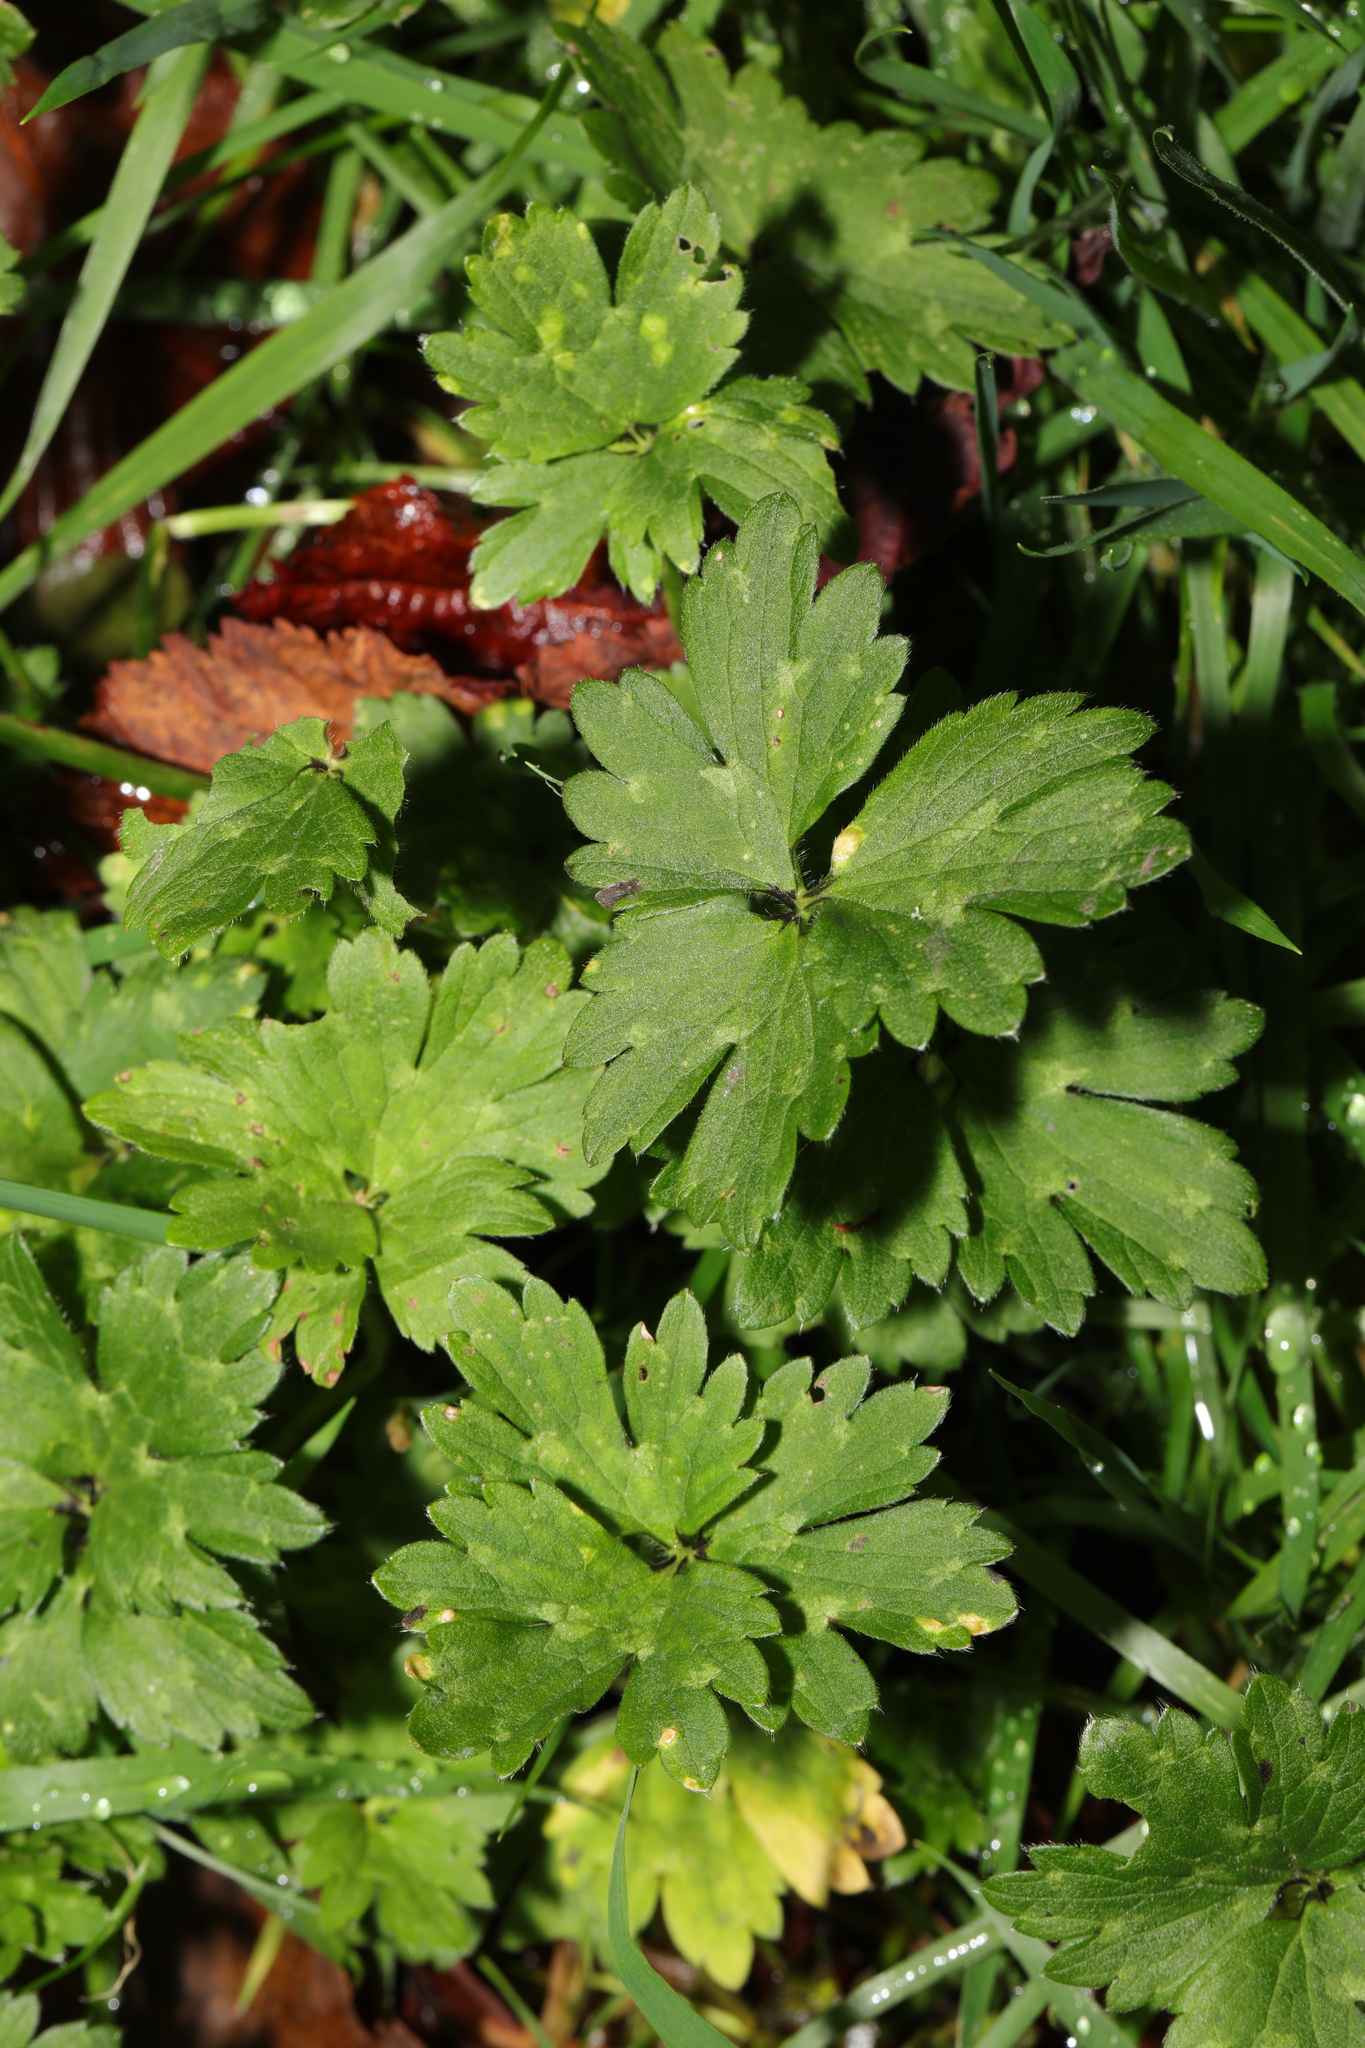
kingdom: Plantae
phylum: Tracheophyta
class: Magnoliopsida
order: Ranunculales
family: Ranunculaceae
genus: Ranunculus
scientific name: Ranunculus repens
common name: Creeping buttercup
